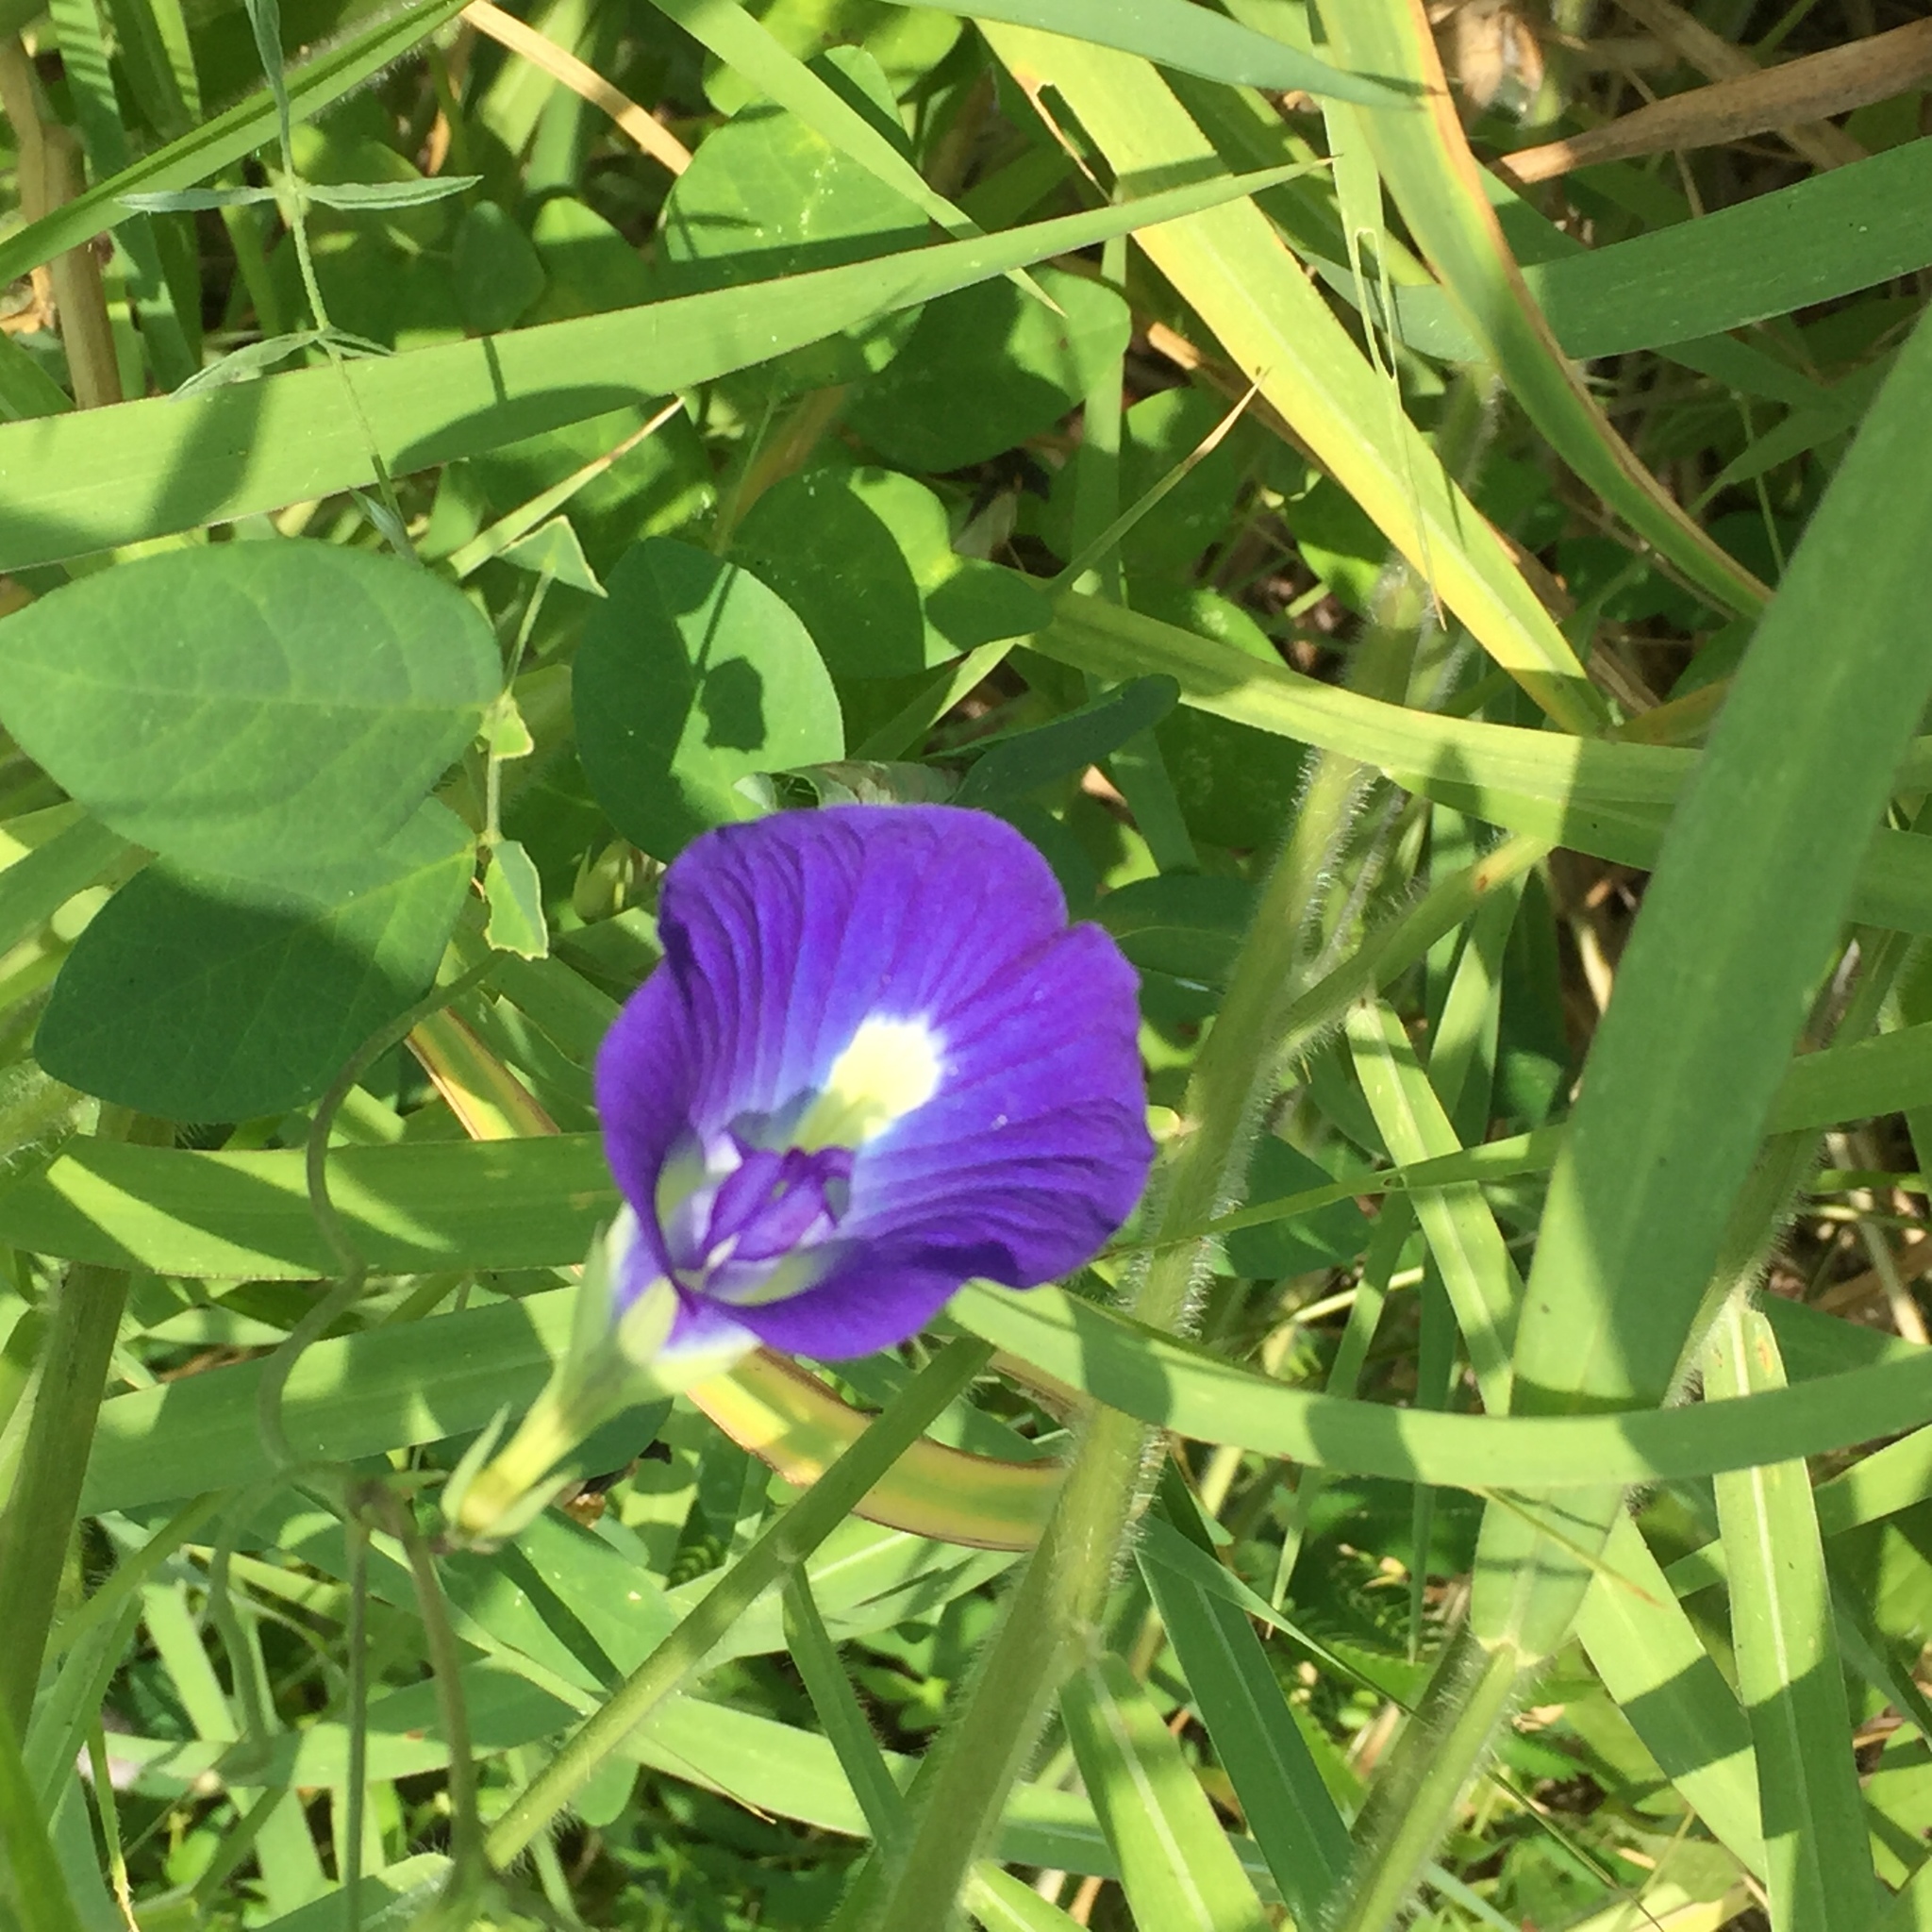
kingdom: Plantae
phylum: Tracheophyta
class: Magnoliopsida
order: Fabales
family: Fabaceae
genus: Clitoria
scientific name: Clitoria ternatea
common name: Asian pigeonwings
